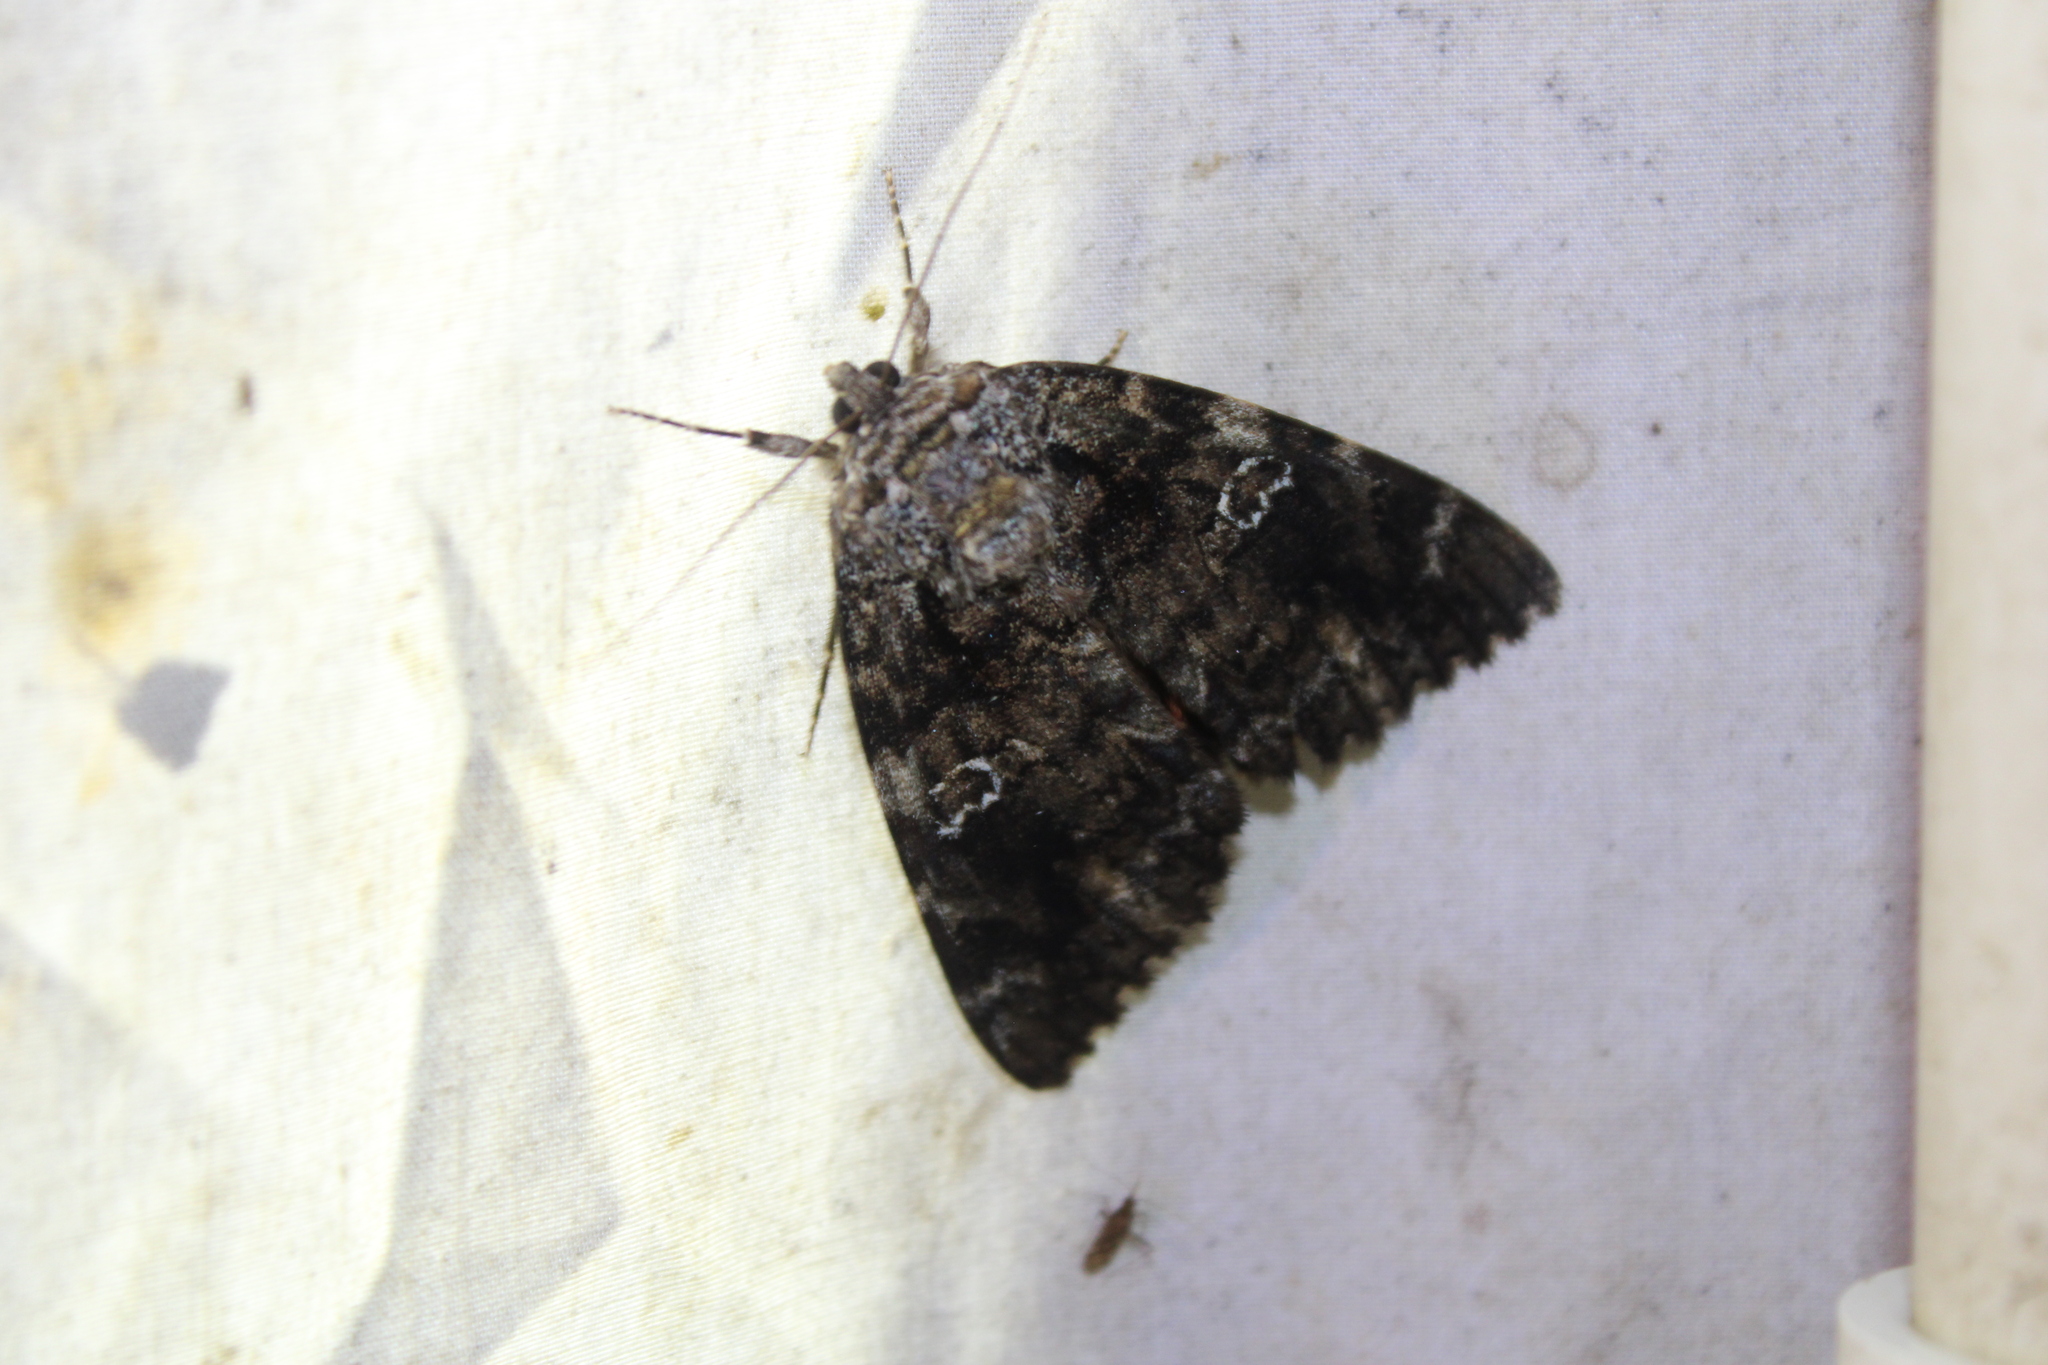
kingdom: Animalia
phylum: Arthropoda
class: Insecta
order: Lepidoptera
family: Erebidae
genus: Catocala
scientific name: Catocala ilia
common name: Ilia underwing
